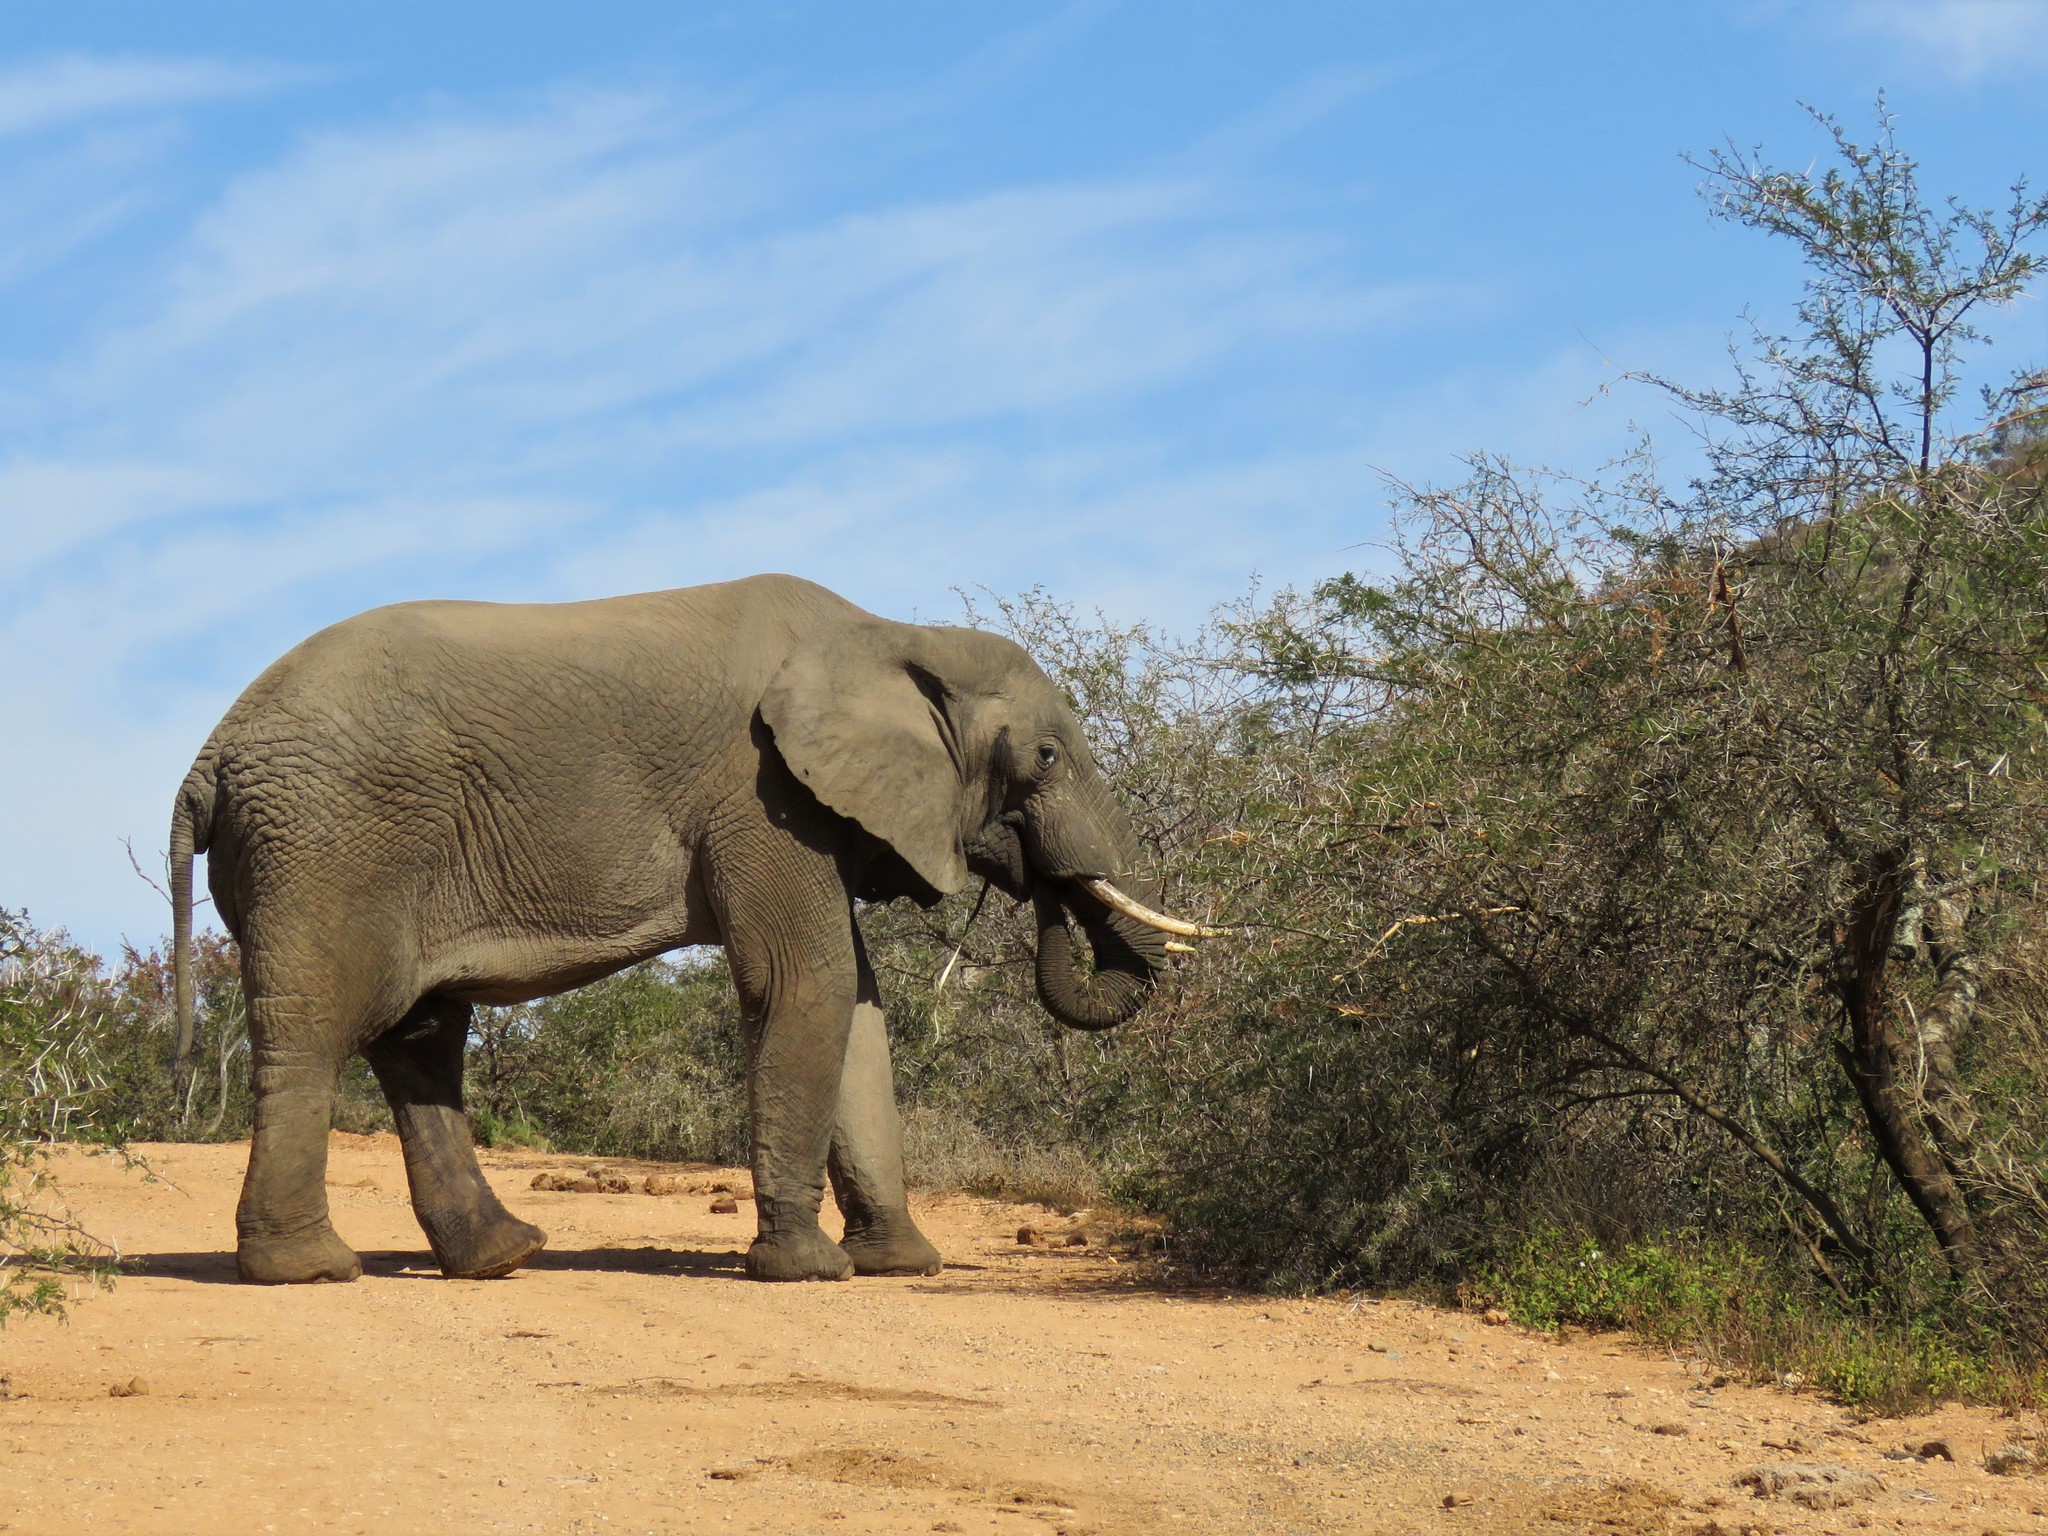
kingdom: Animalia
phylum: Chordata
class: Mammalia
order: Proboscidea
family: Elephantidae
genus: Loxodonta
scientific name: Loxodonta africana
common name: African elephant
